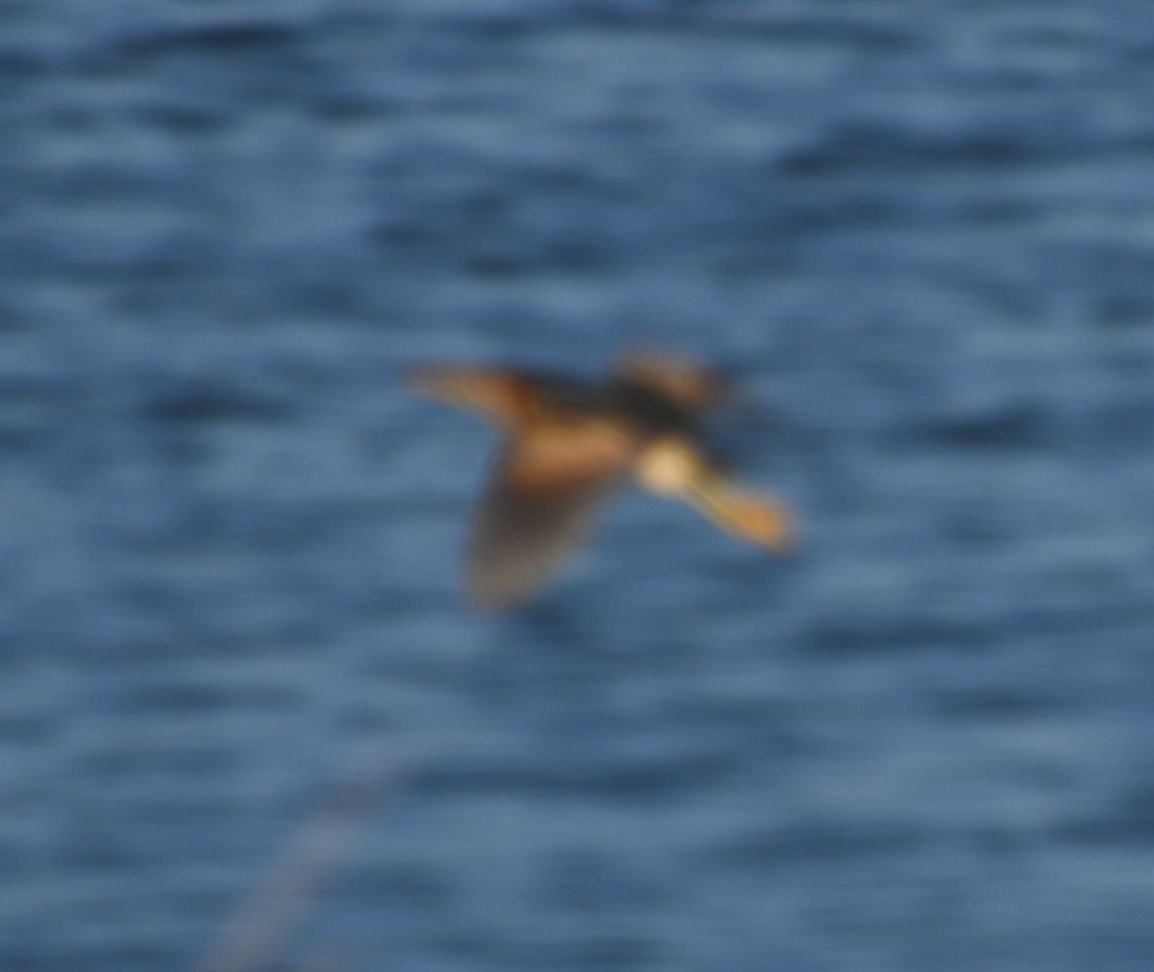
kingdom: Animalia
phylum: Chordata
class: Aves
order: Pelecaniformes
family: Ardeidae
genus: Ixobrychus
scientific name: Ixobrychus exilis
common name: Least bittern
